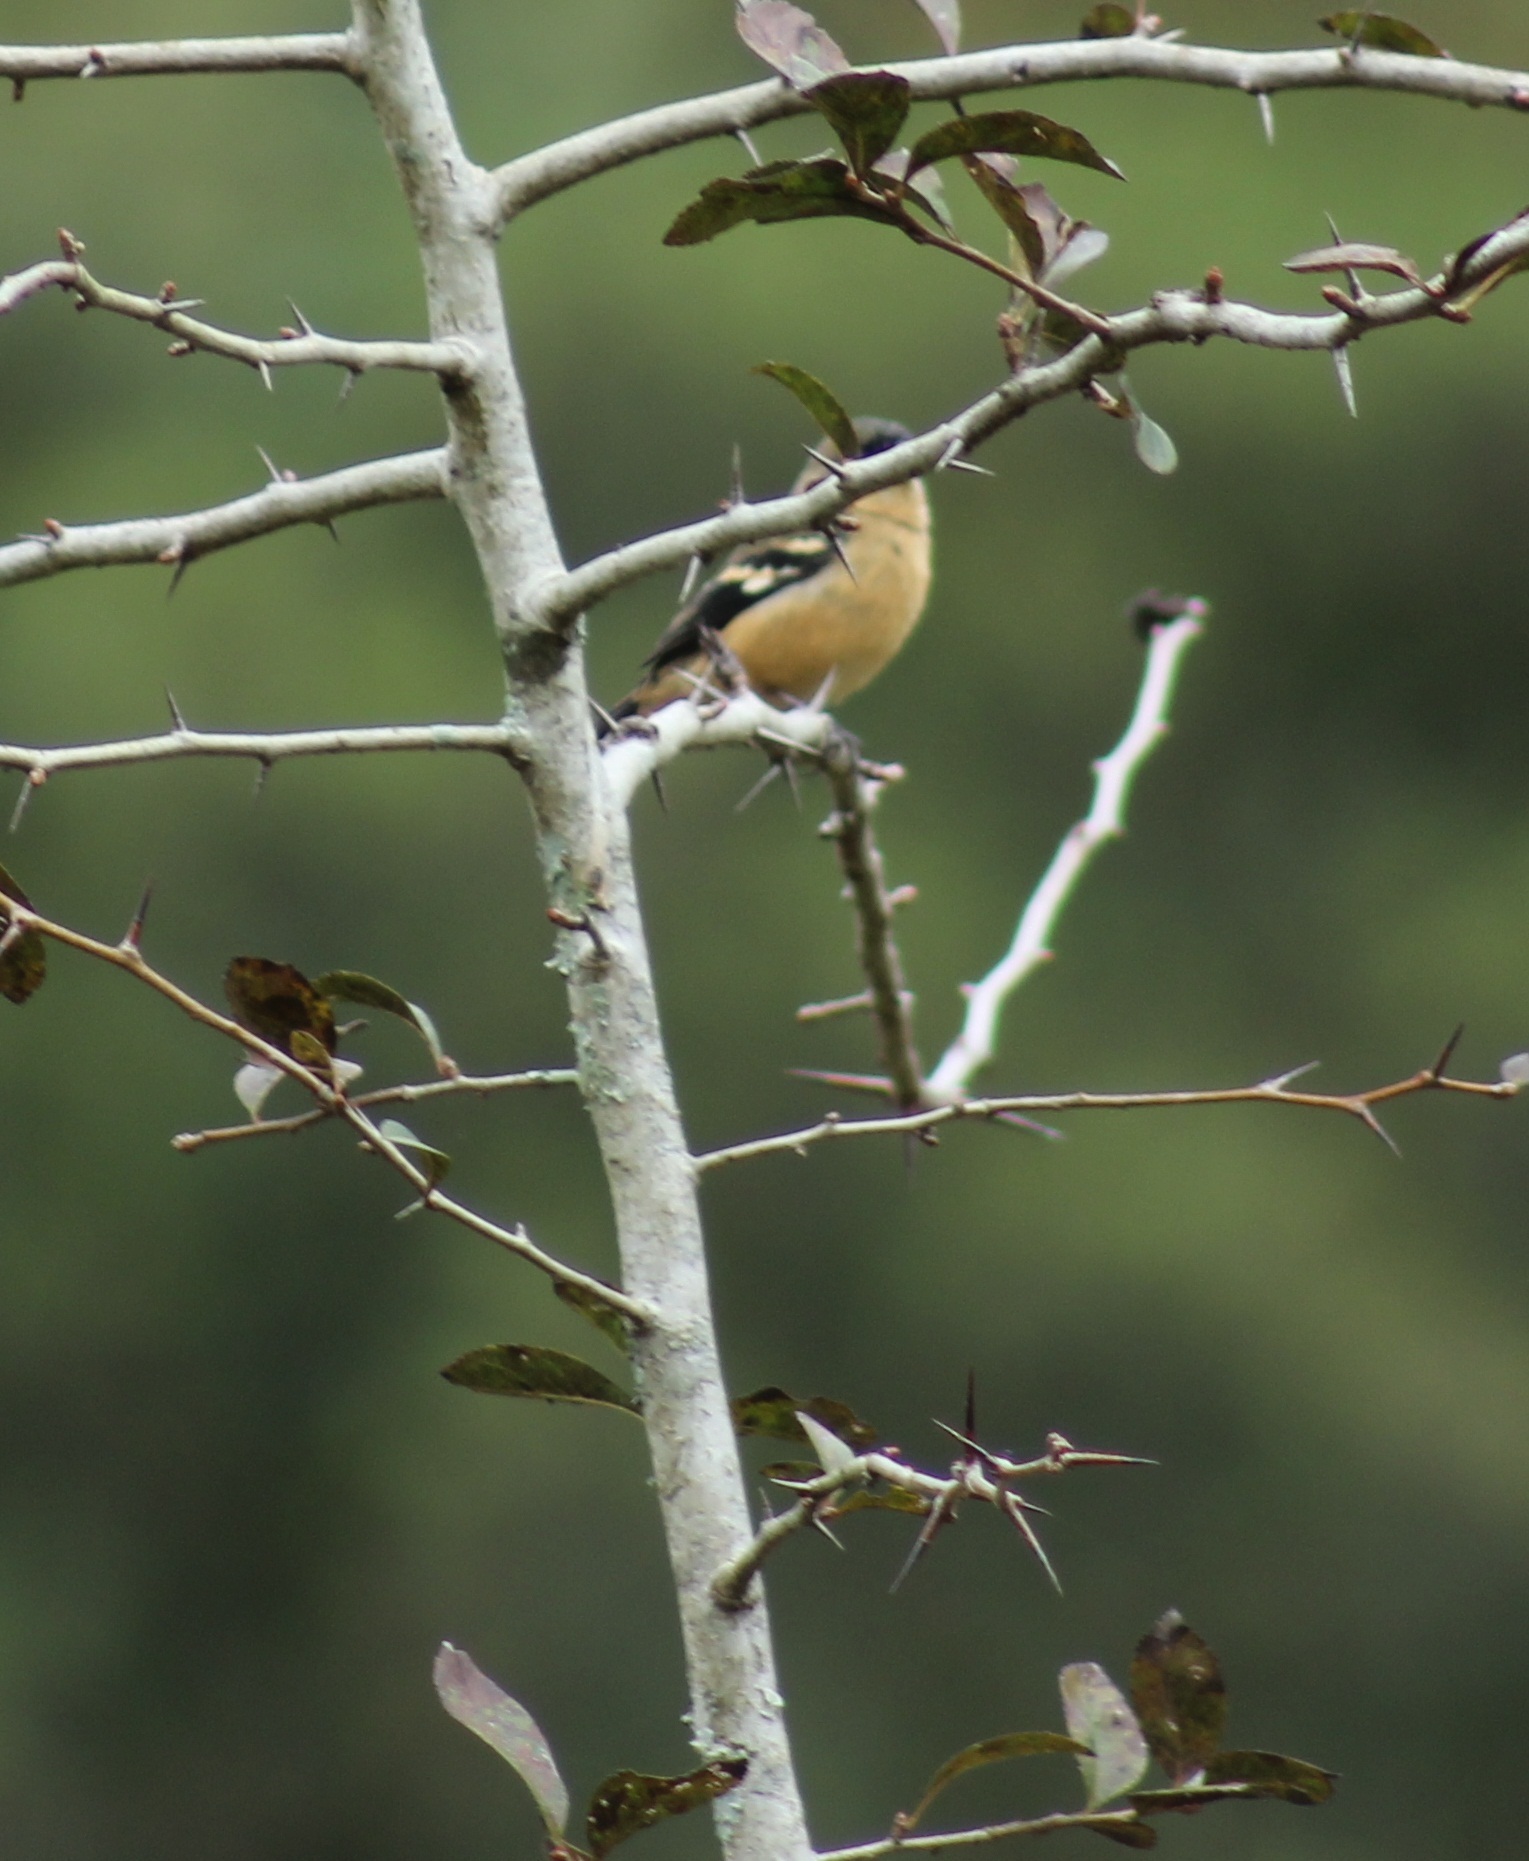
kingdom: Animalia
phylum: Chordata
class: Aves
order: Passeriformes
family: Thraupidae
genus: Sporophila
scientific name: Sporophila morelleti
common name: Morelet's seedeater
